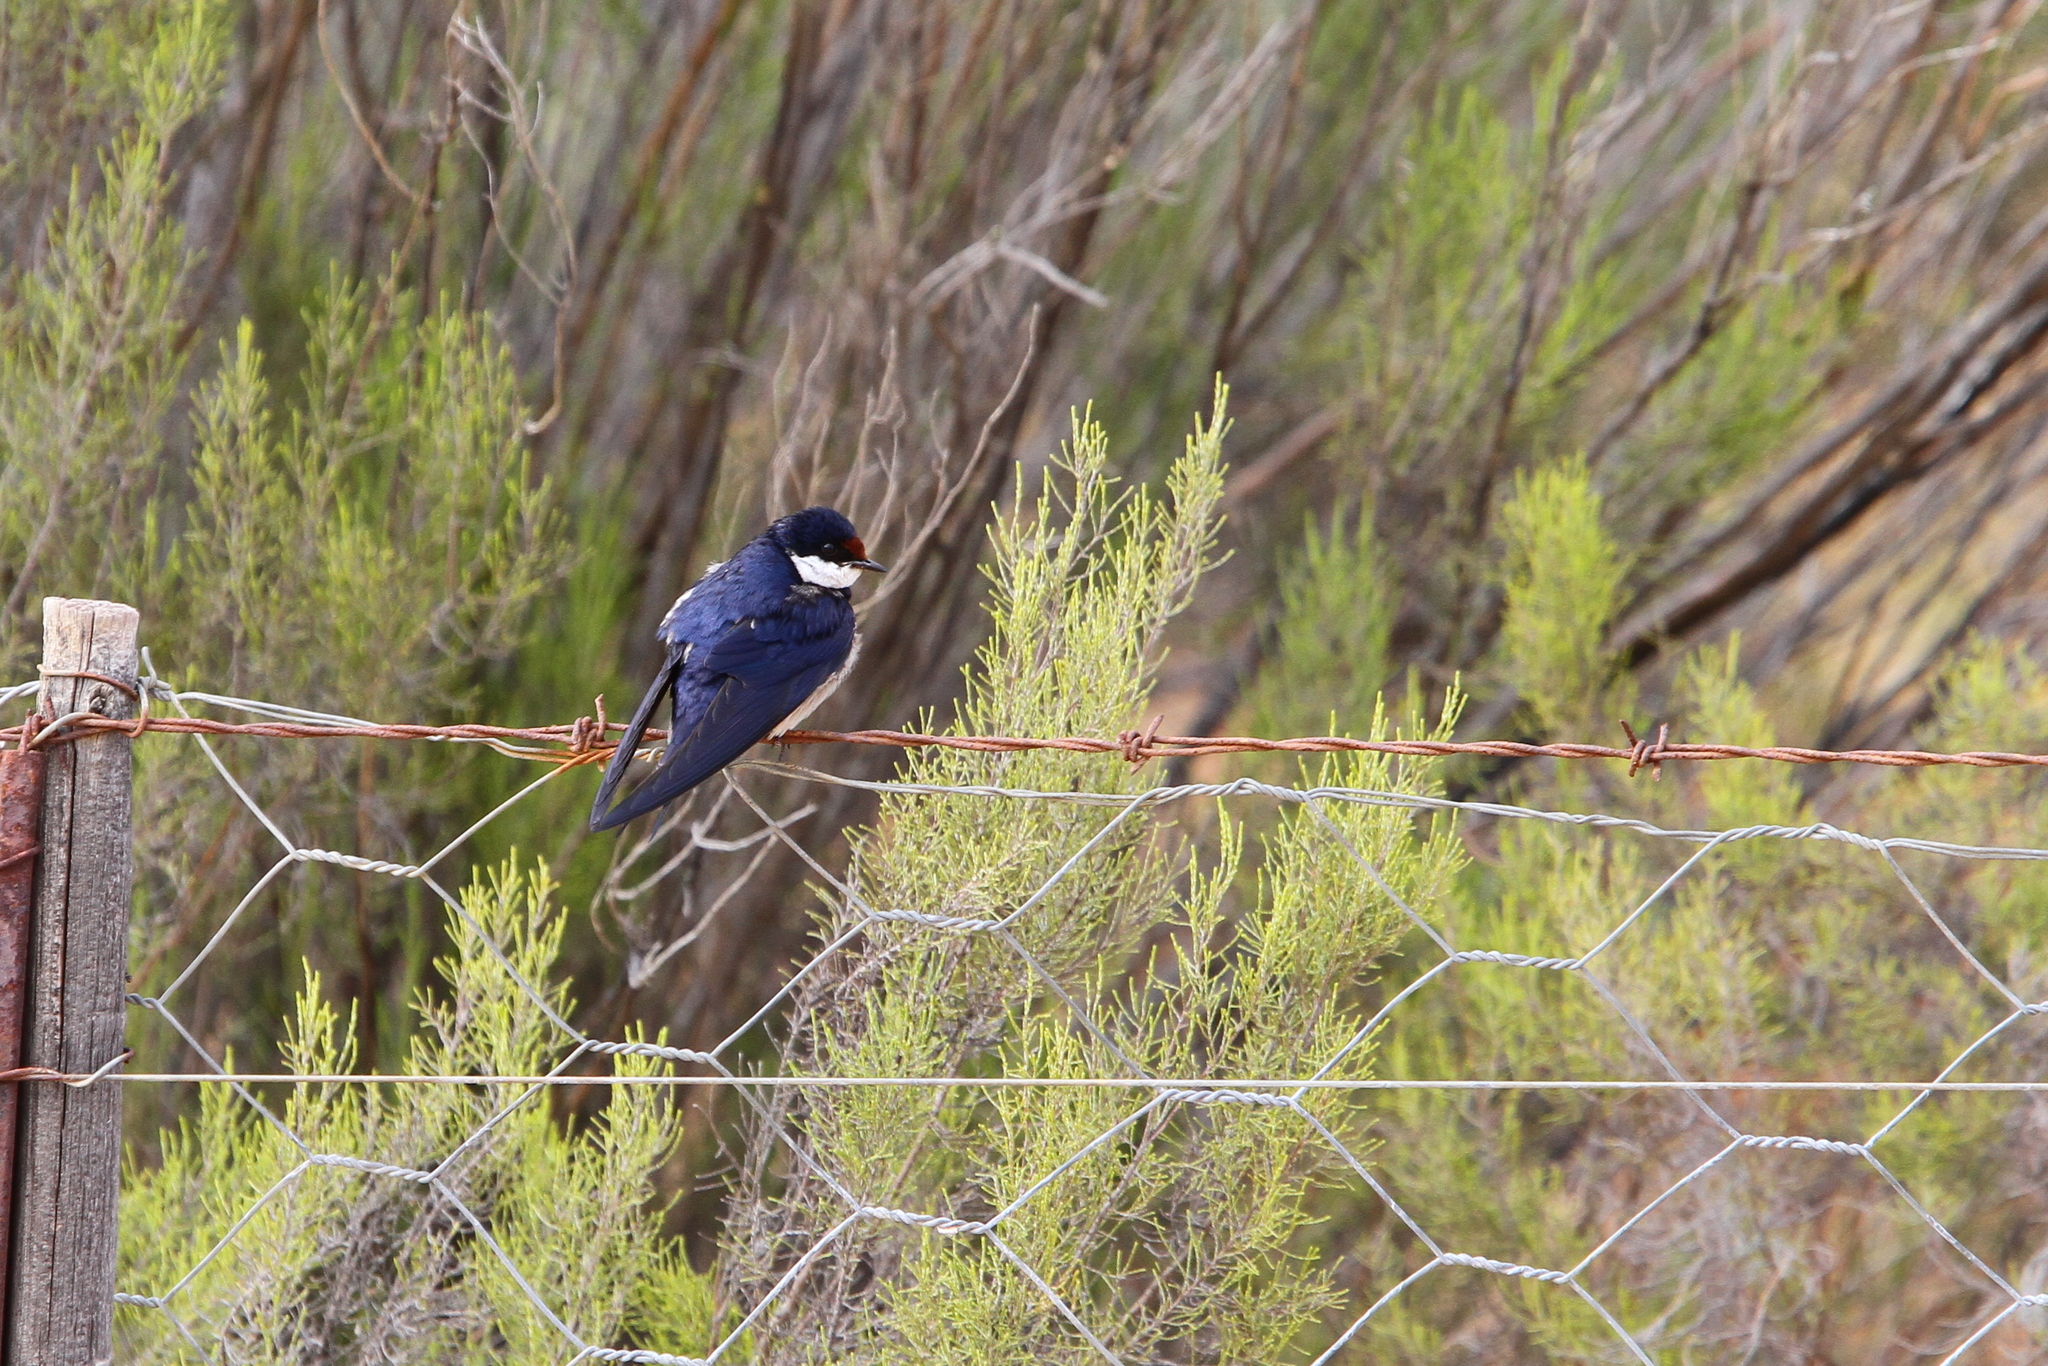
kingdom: Animalia
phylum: Chordata
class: Aves
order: Passeriformes
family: Hirundinidae
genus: Hirundo
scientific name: Hirundo albigularis
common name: White-throated swallow
